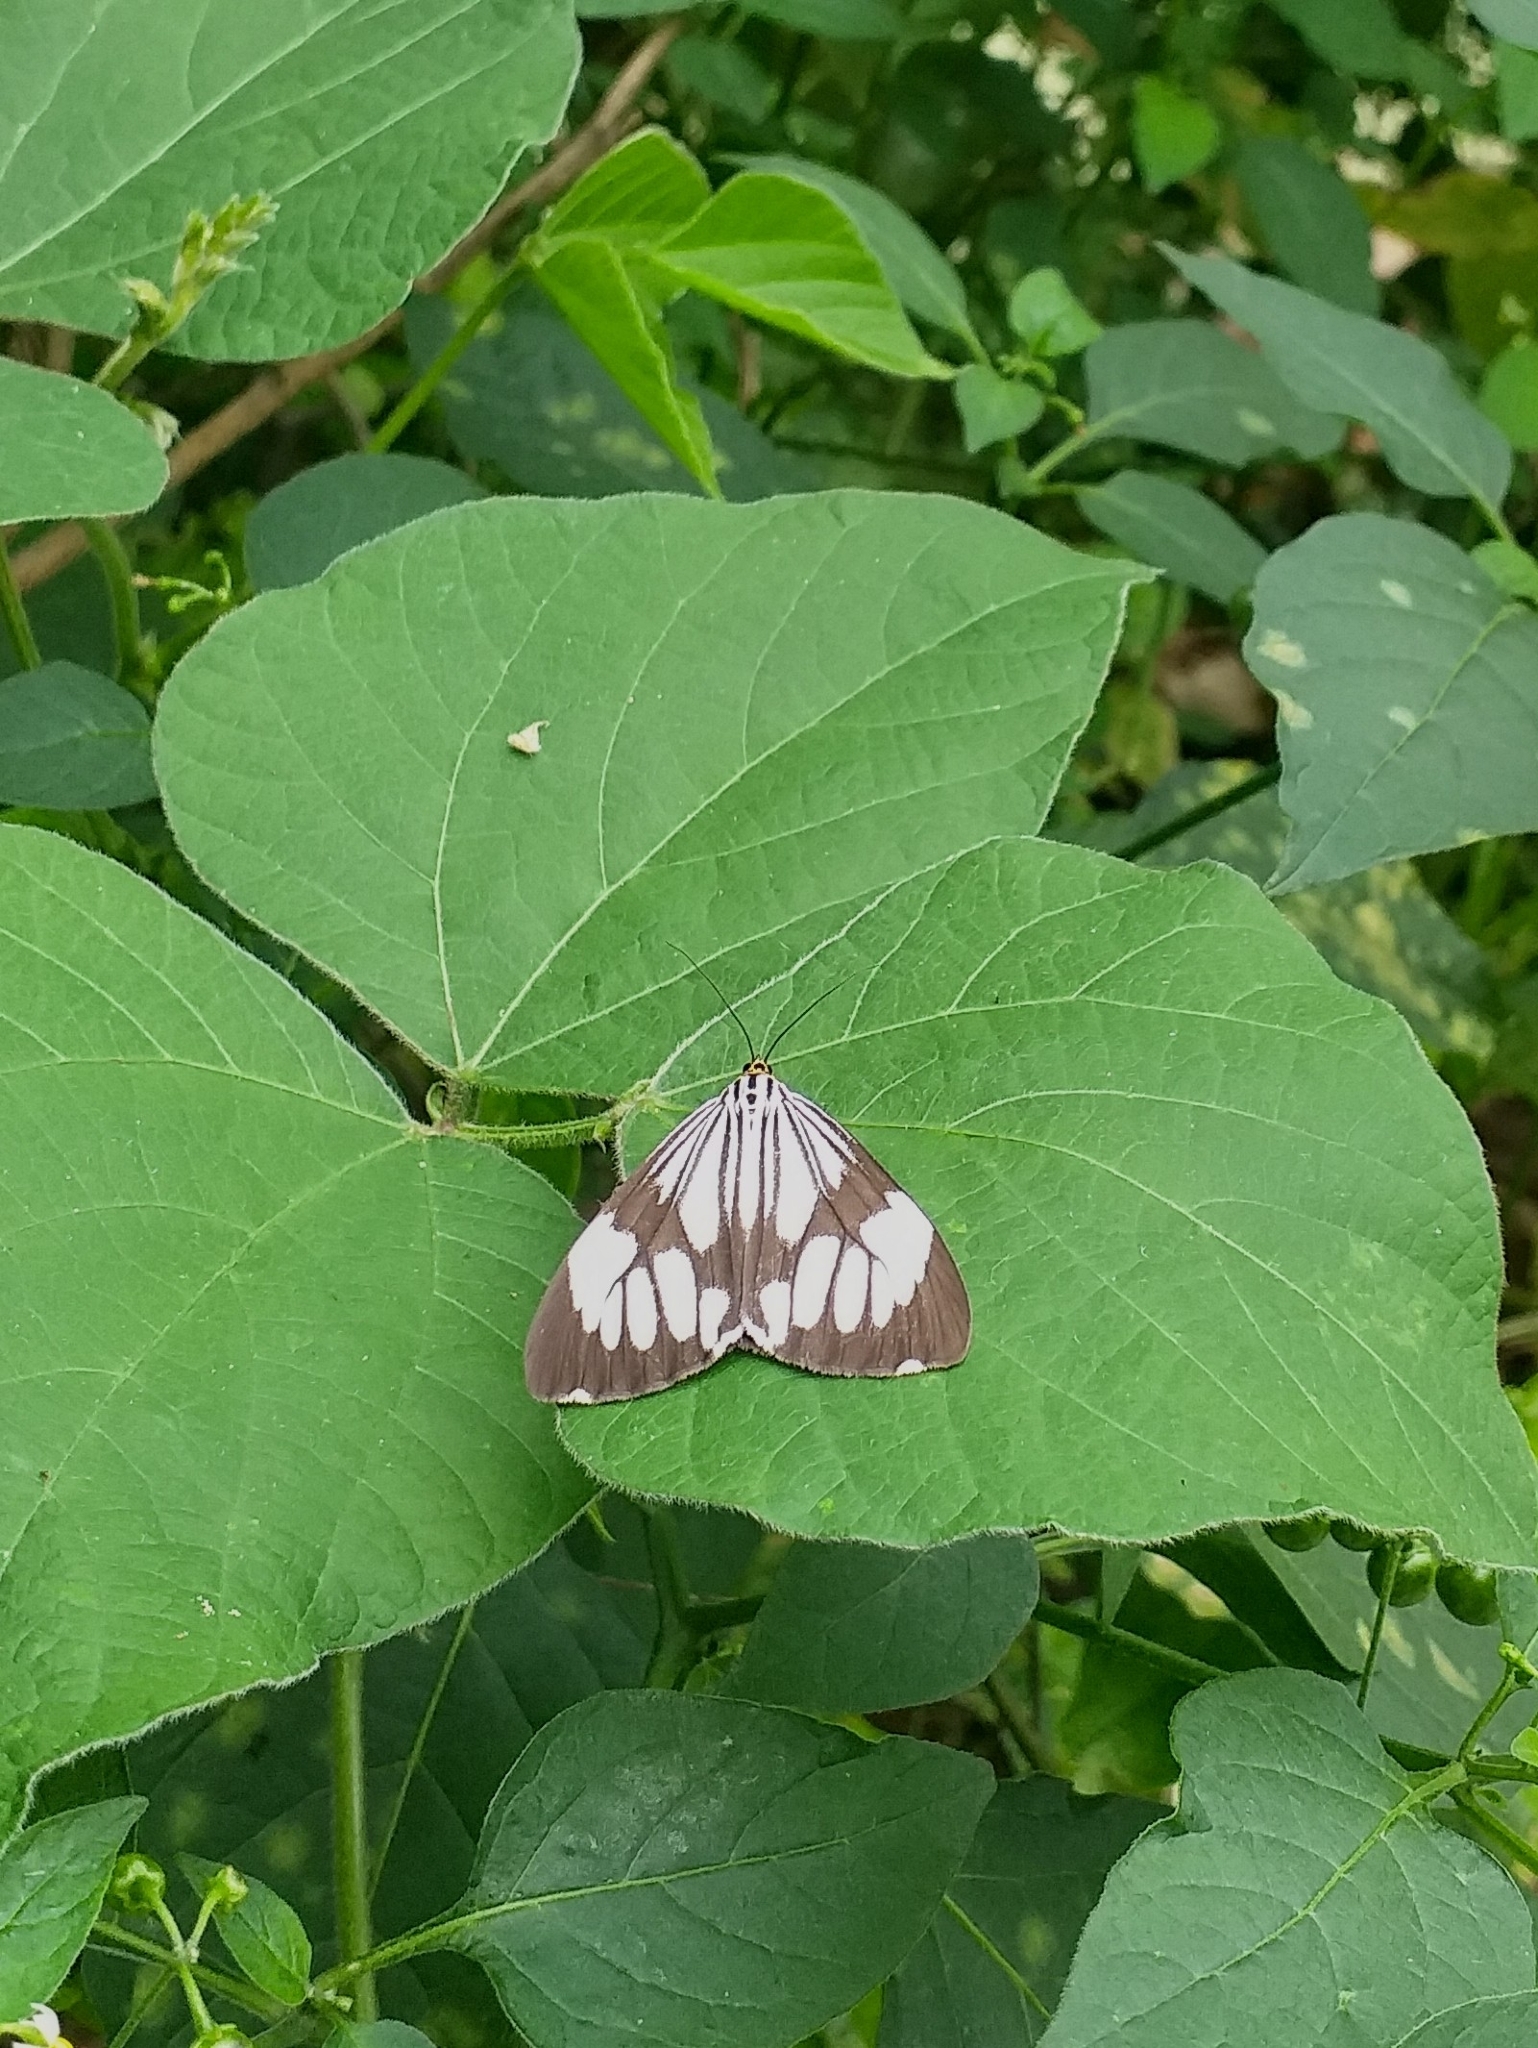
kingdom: Animalia
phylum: Arthropoda
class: Insecta
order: Lepidoptera
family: Erebidae
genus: Nyctemera
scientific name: Nyctemera coleta
